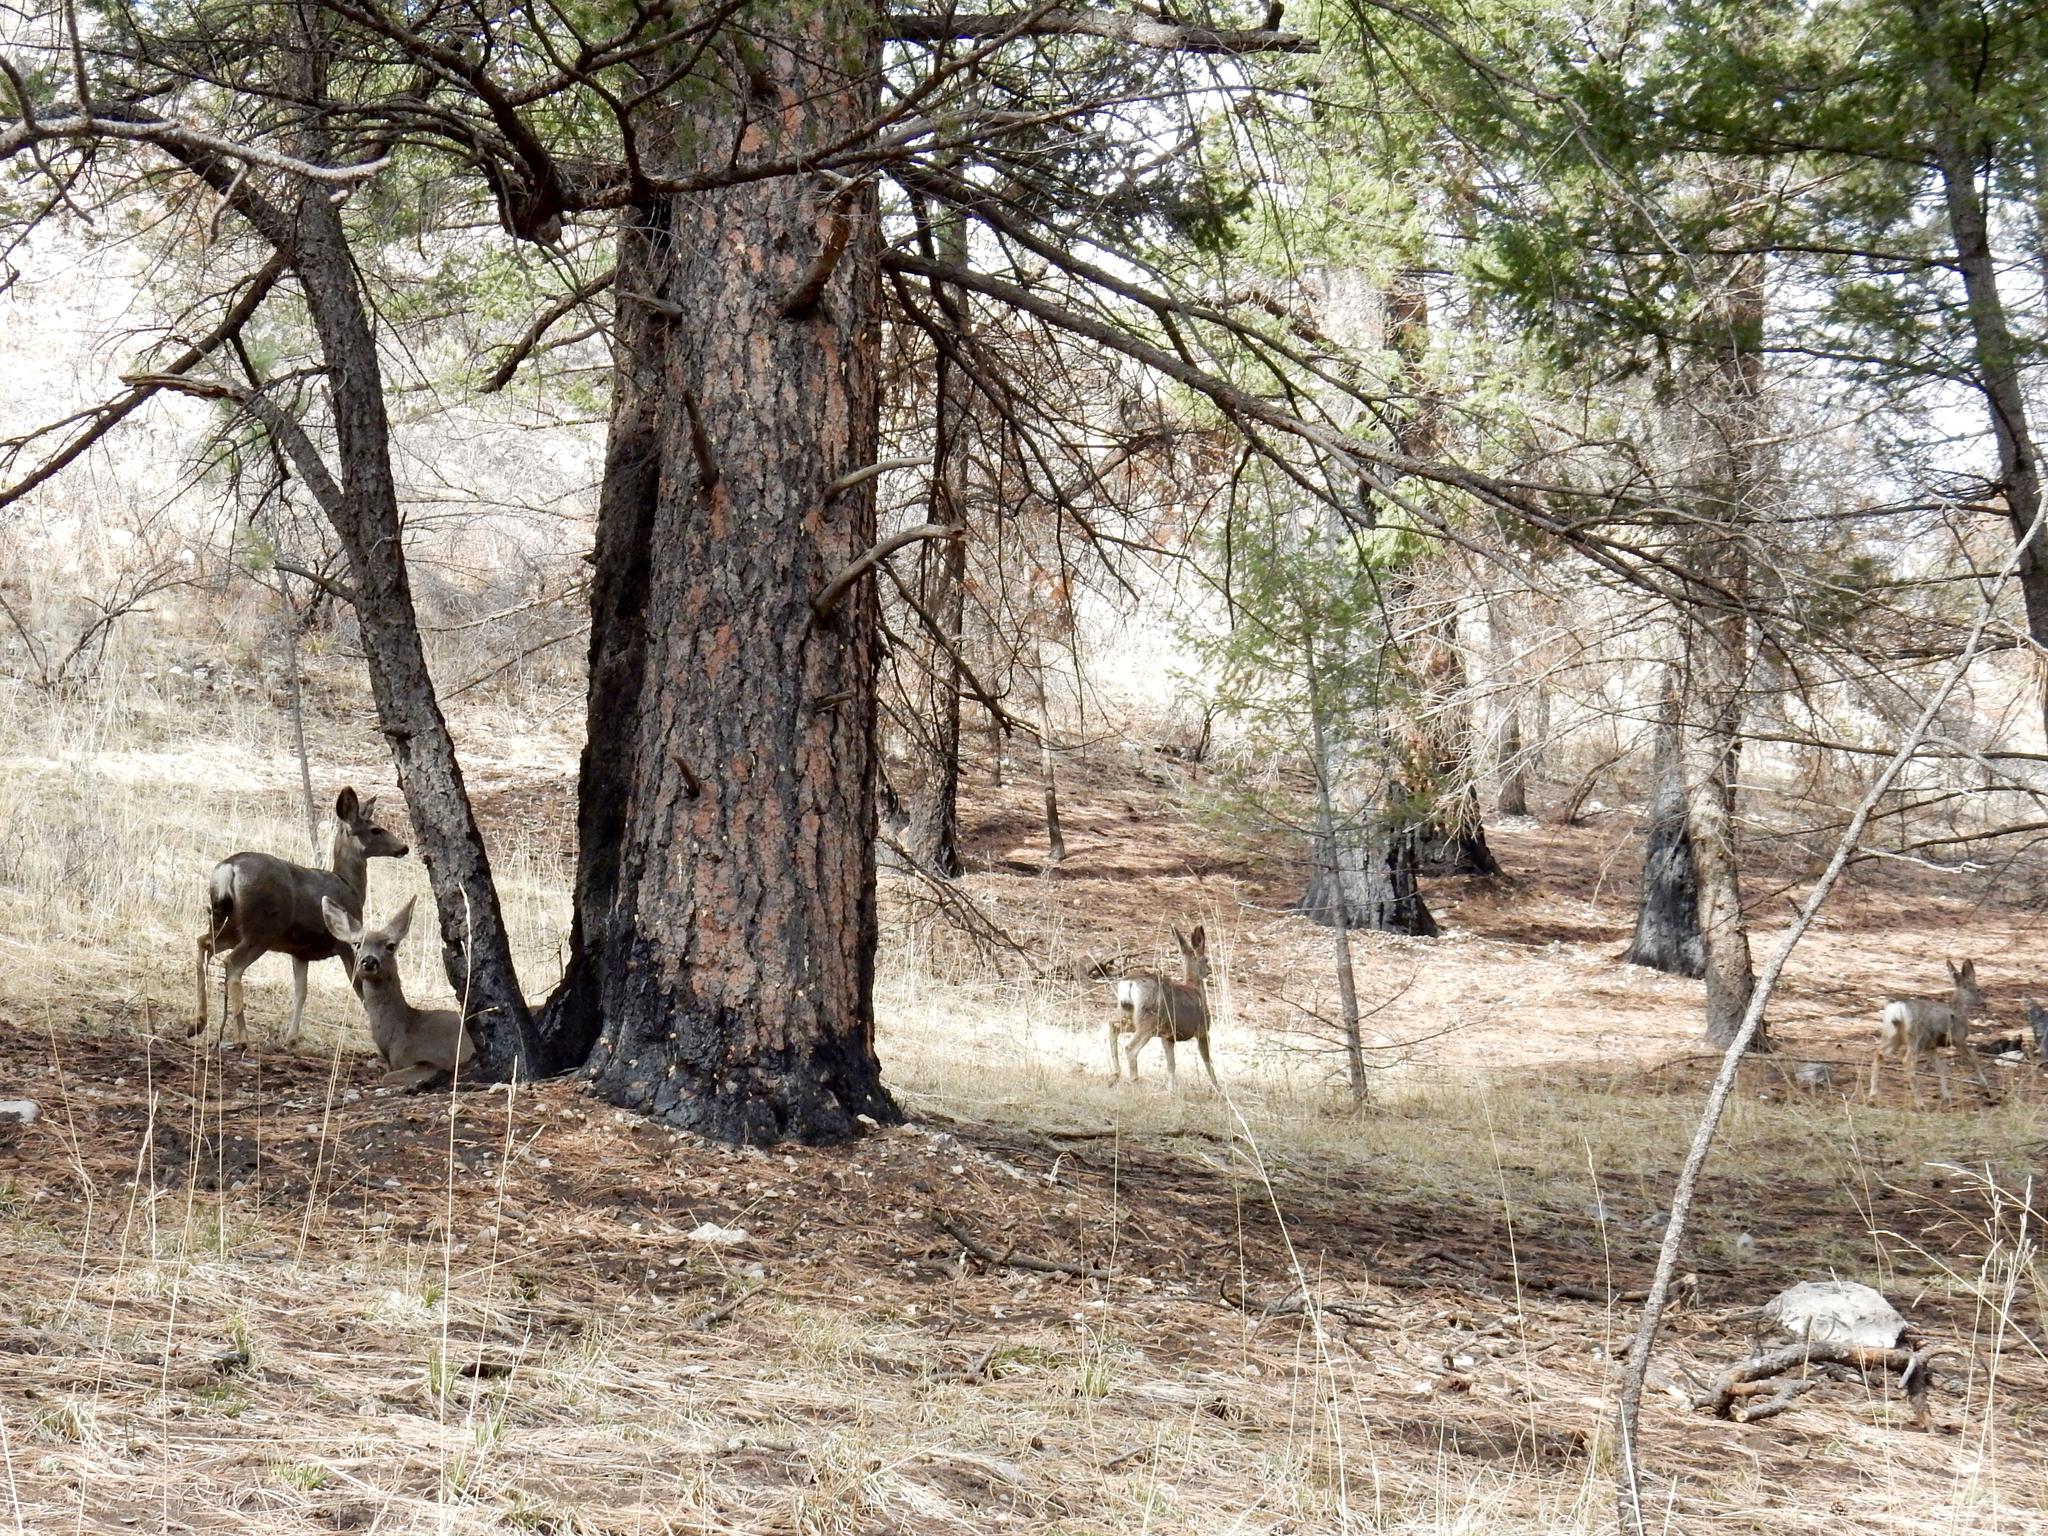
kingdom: Animalia
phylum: Chordata
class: Mammalia
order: Artiodactyla
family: Cervidae
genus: Odocoileus
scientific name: Odocoileus hemionus
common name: Mule deer
